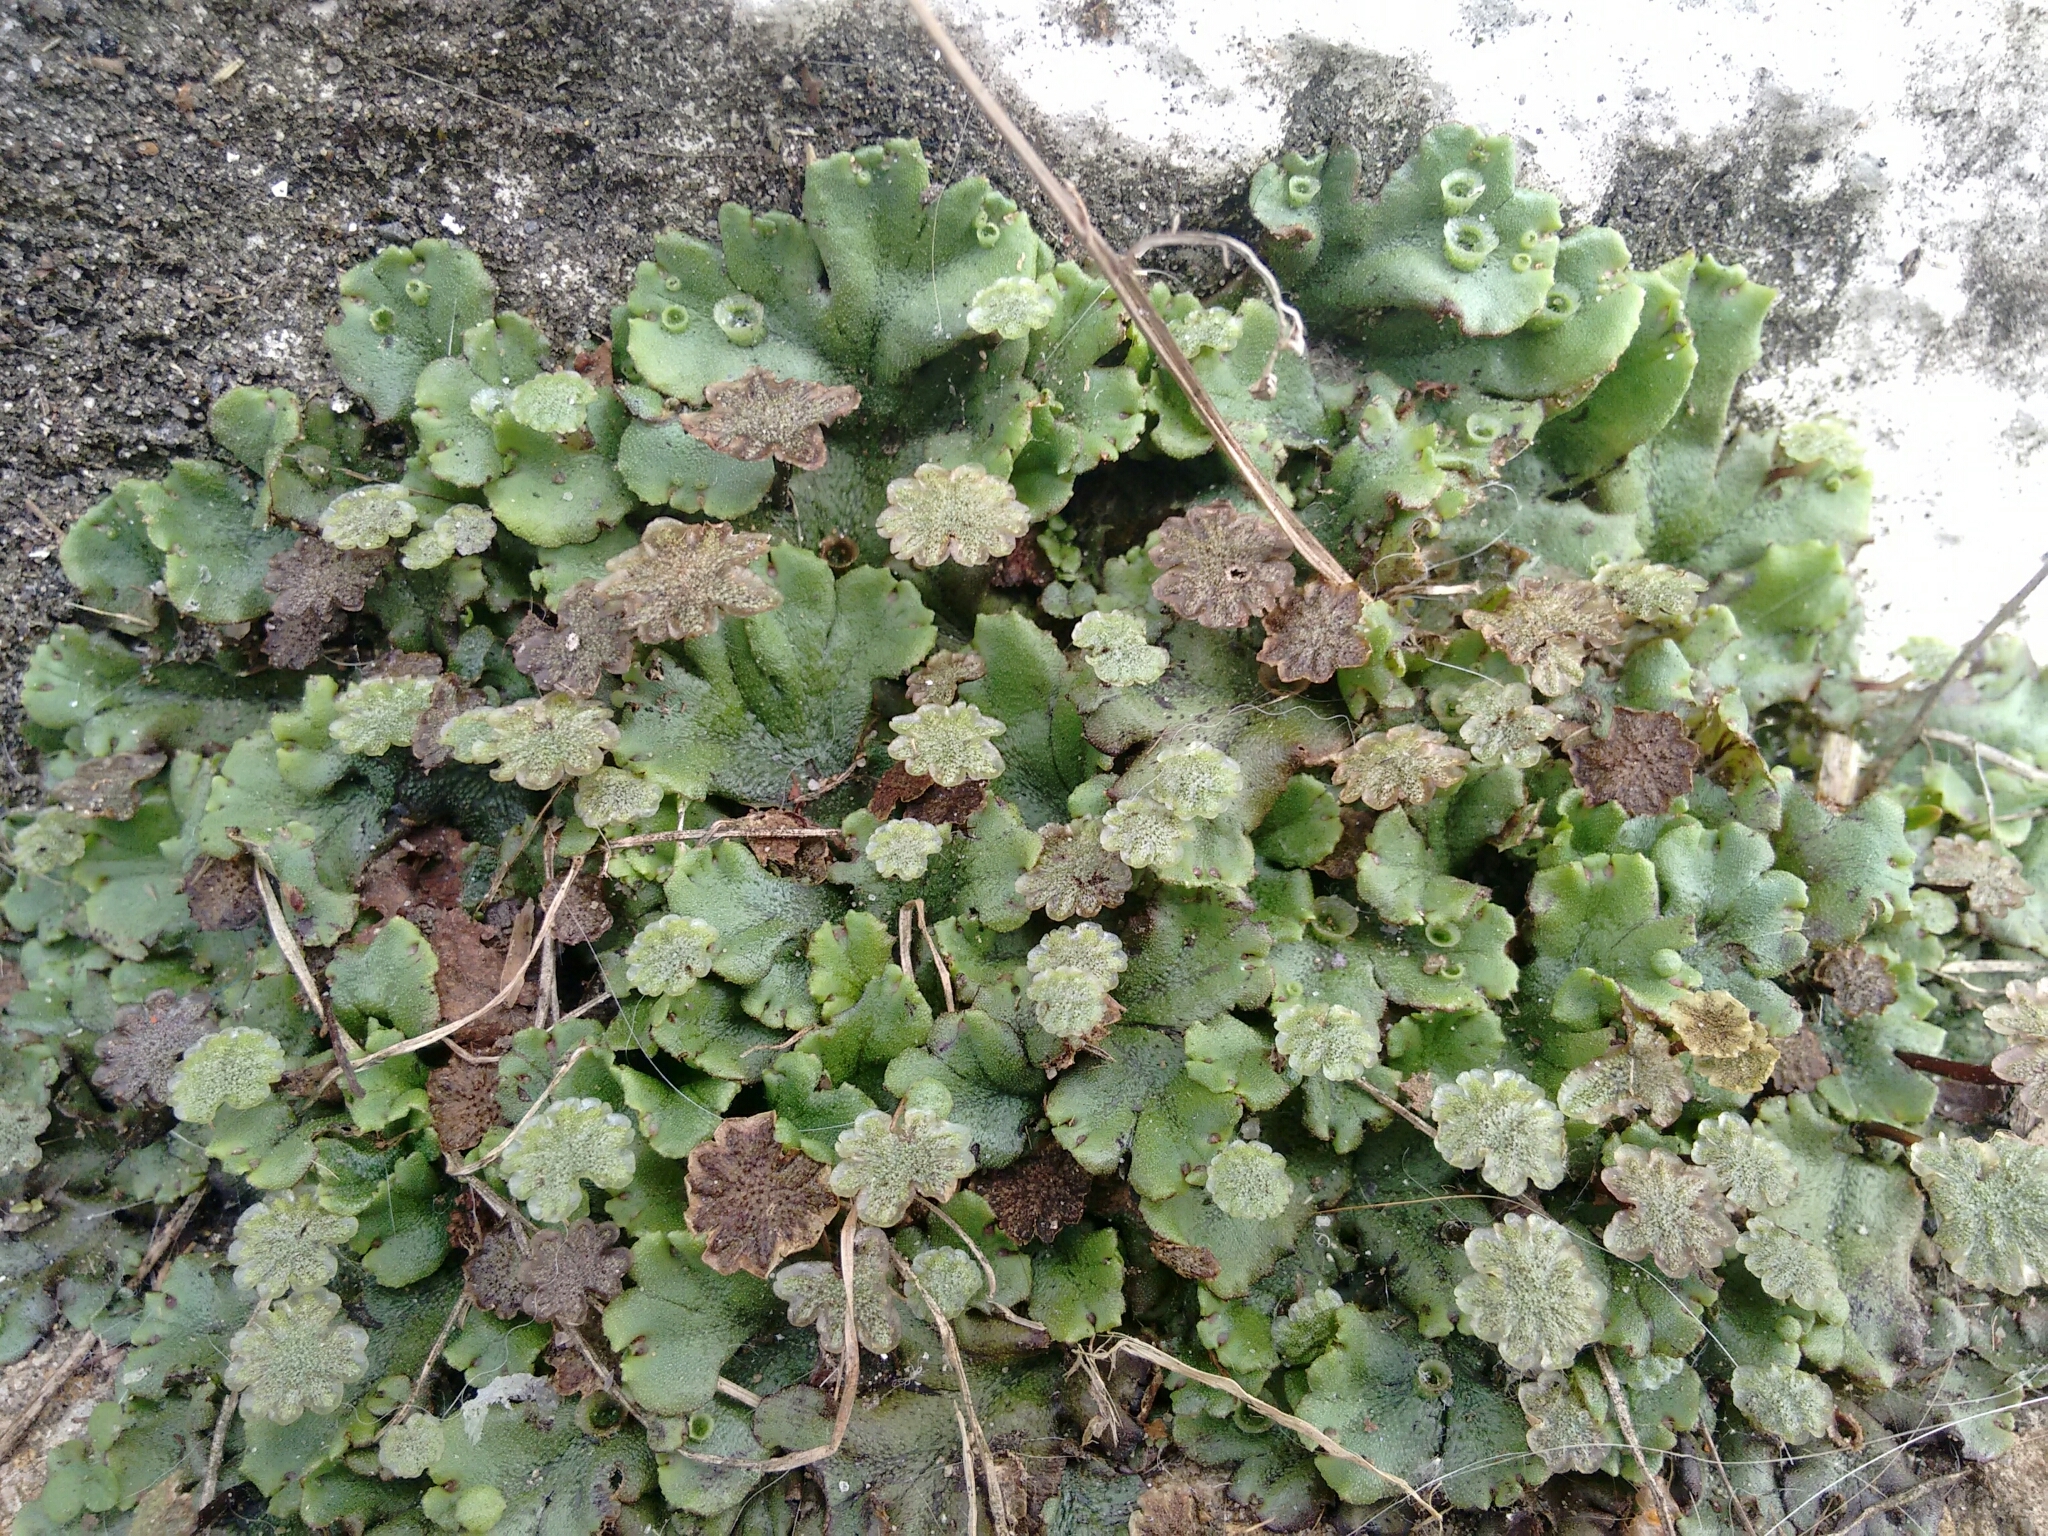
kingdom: Plantae
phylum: Marchantiophyta
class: Marchantiopsida
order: Marchantiales
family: Marchantiaceae
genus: Marchantia
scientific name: Marchantia polymorpha
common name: Common liverwort
